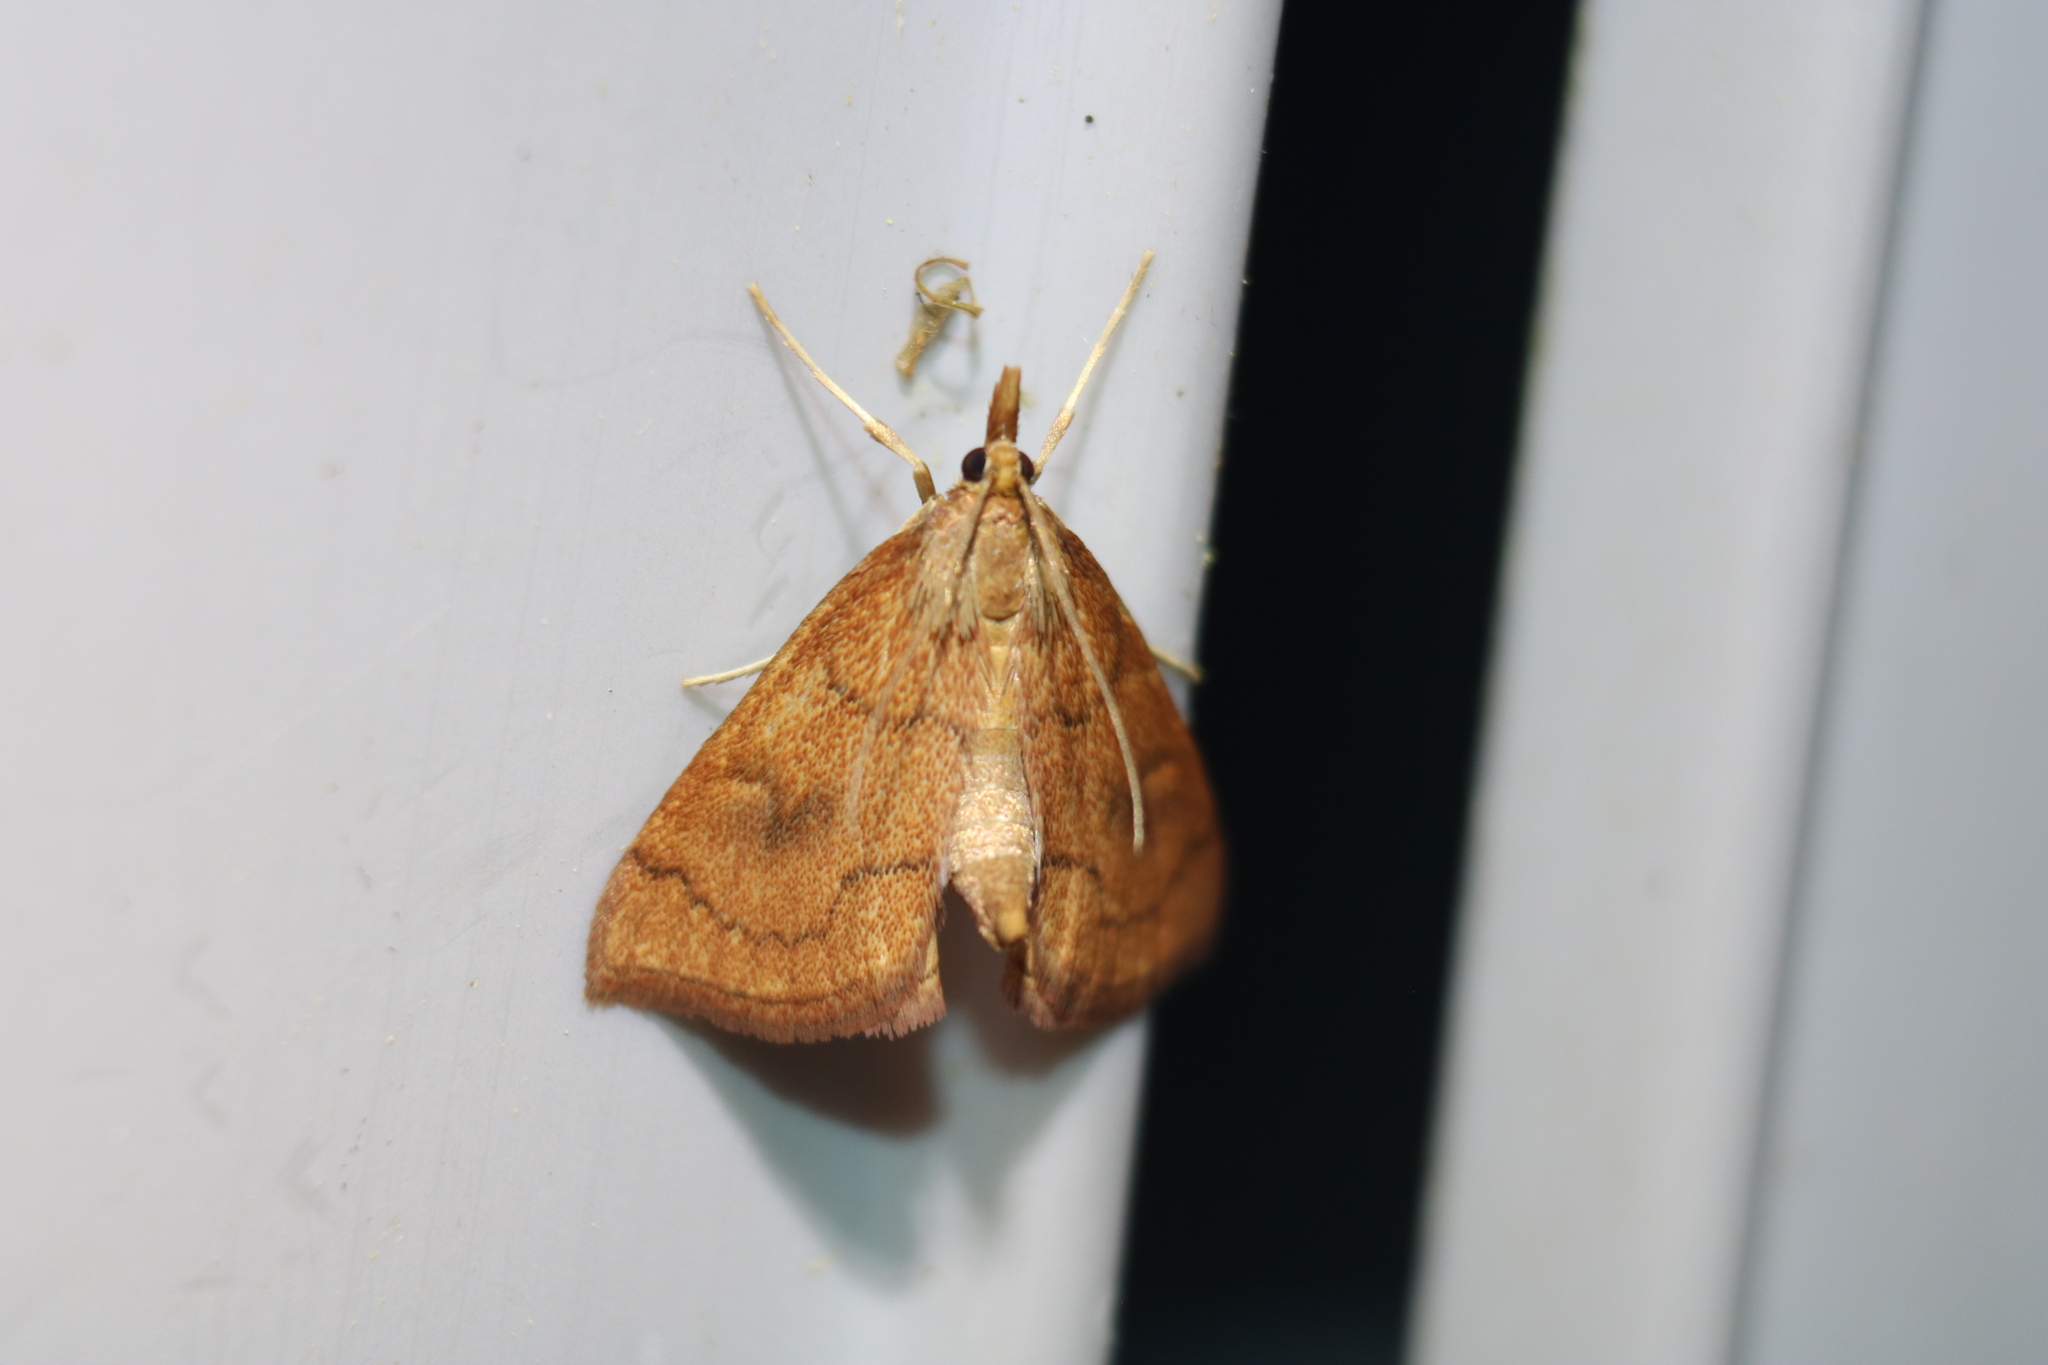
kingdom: Animalia
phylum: Arthropoda
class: Insecta
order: Lepidoptera
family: Crambidae
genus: Fumibotys
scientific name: Fumibotys fumalis
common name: Mint root borer moth
